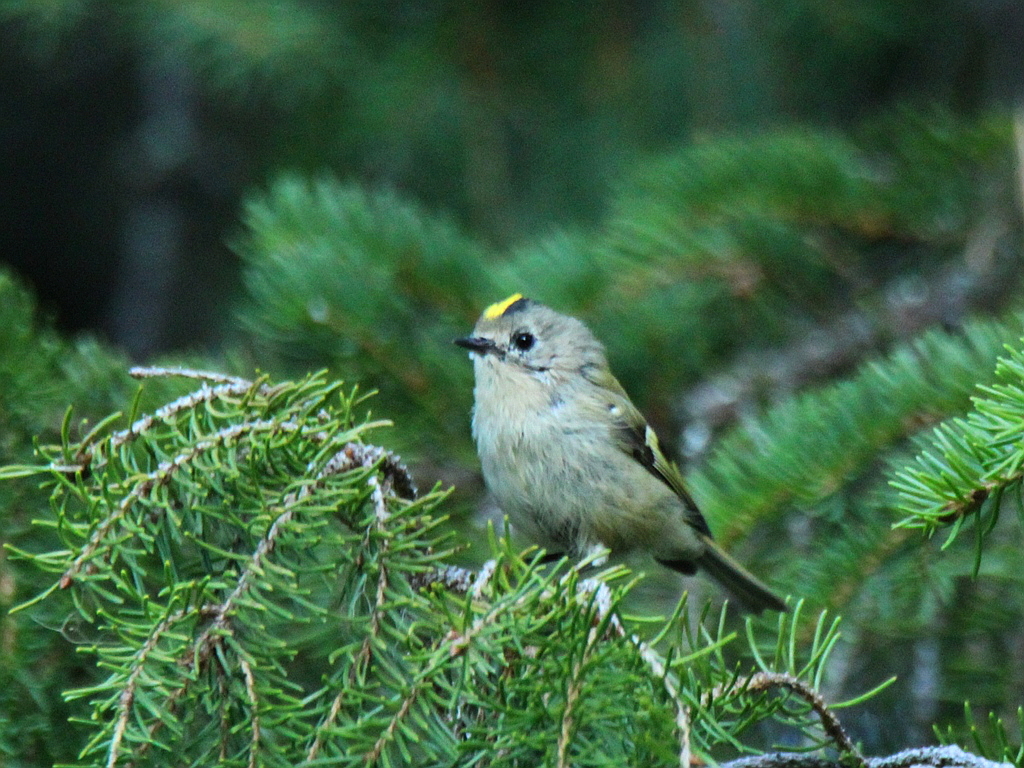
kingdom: Animalia
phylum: Chordata
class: Aves
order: Passeriformes
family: Regulidae
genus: Regulus
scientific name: Regulus regulus
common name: Goldcrest
